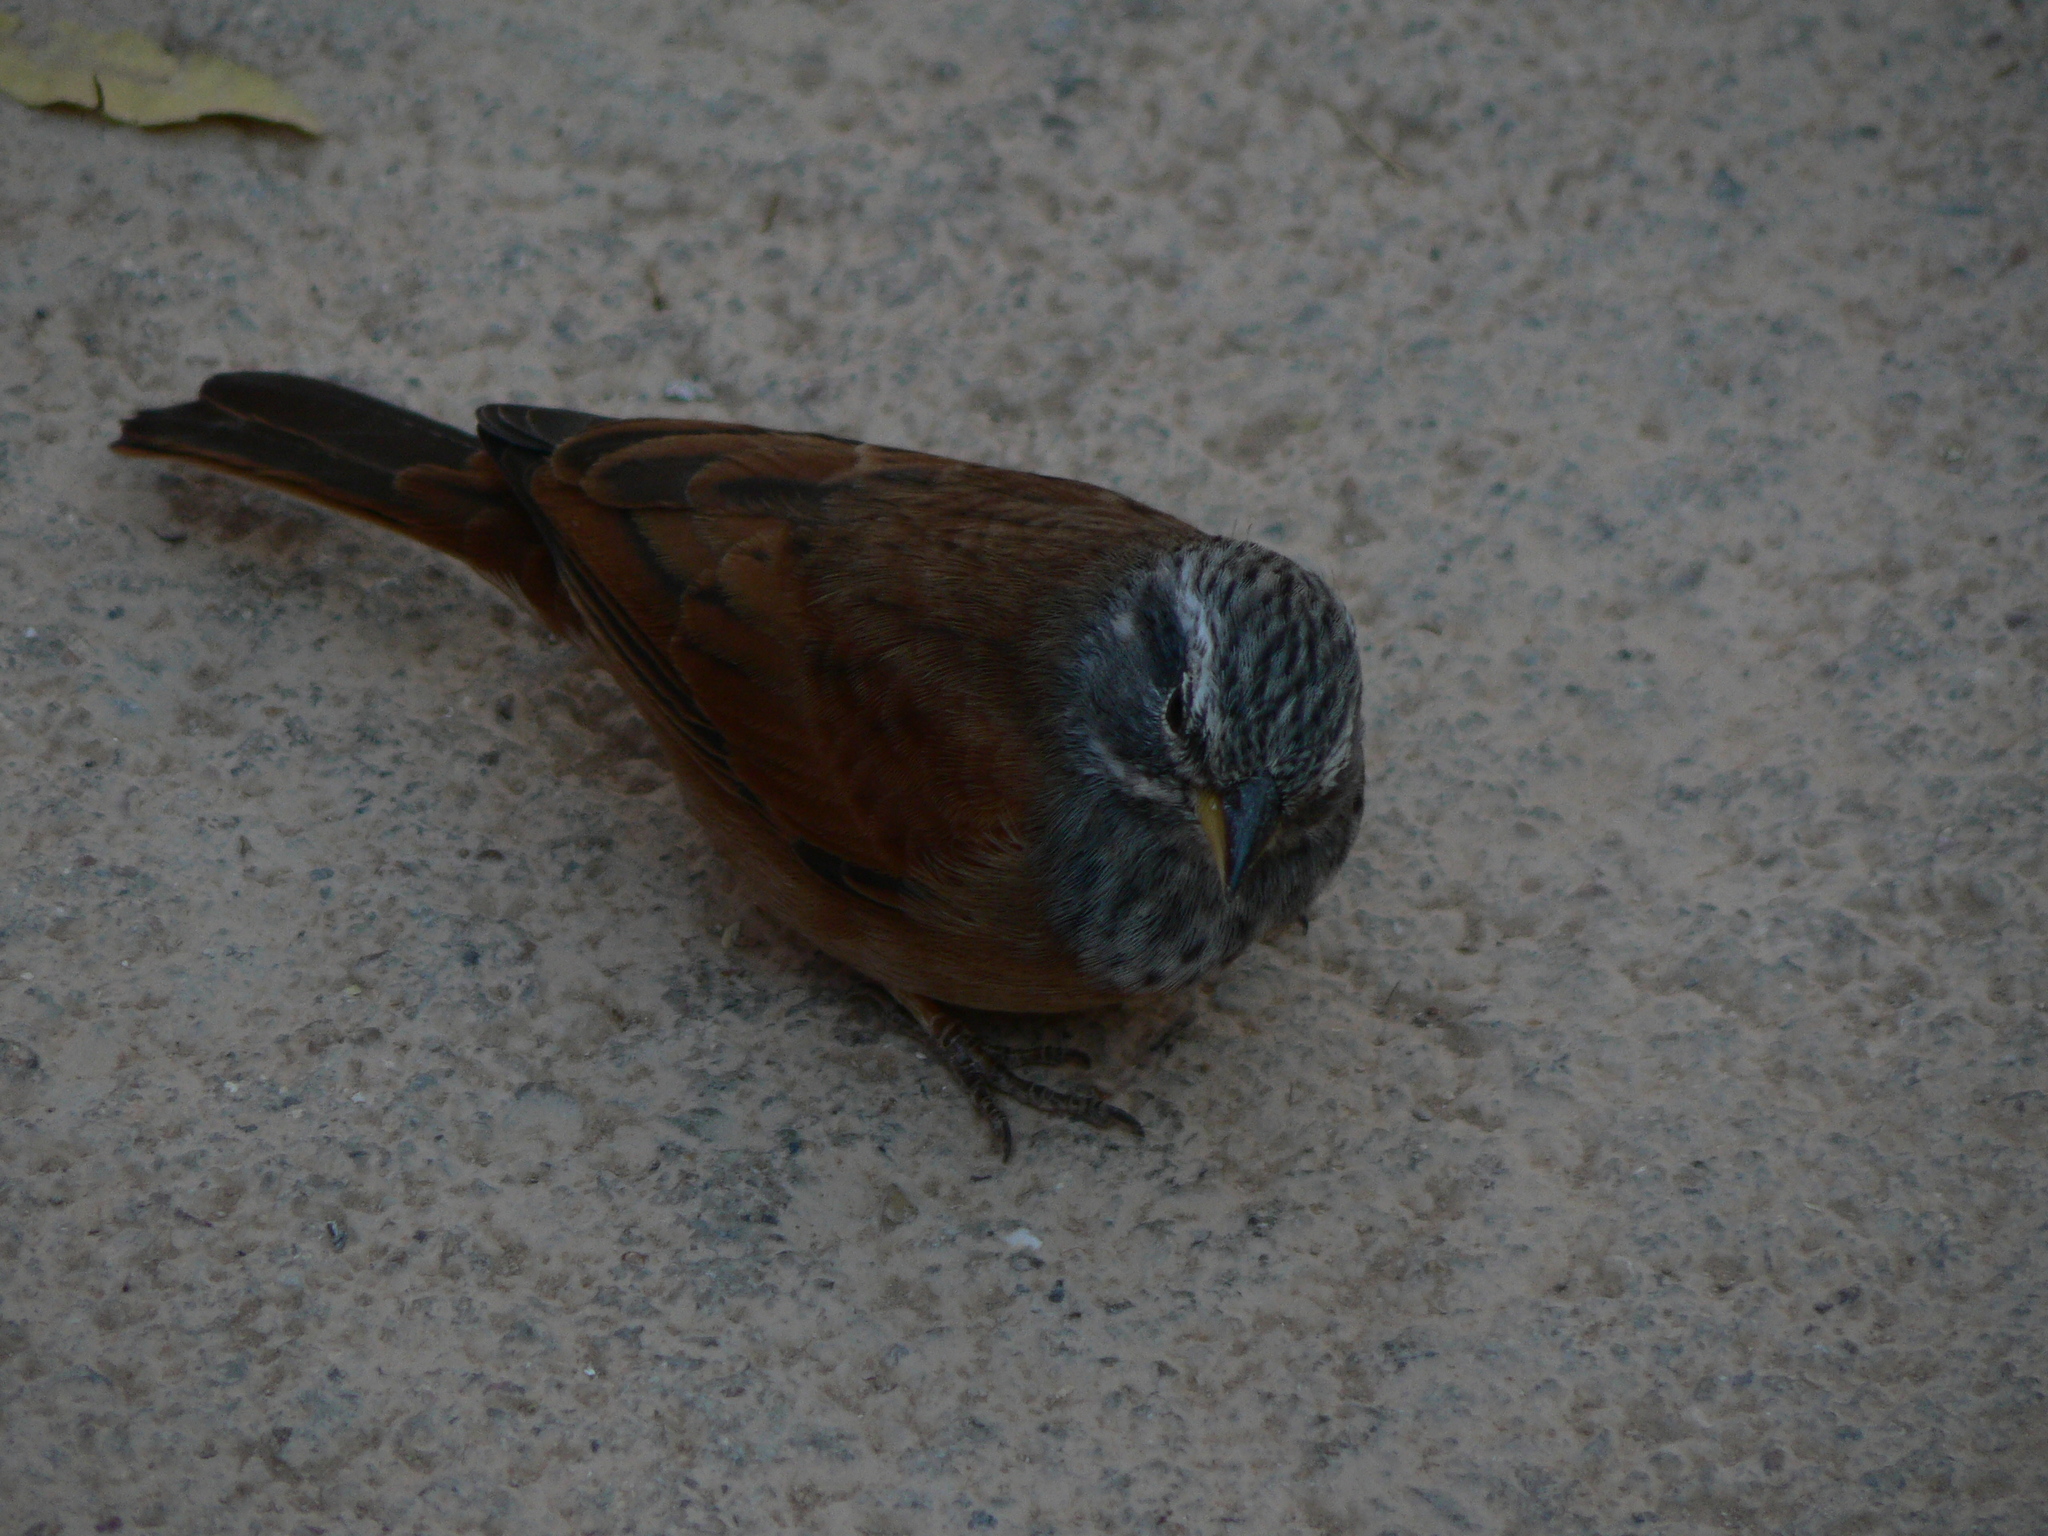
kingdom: Animalia
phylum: Chordata
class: Aves
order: Passeriformes
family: Emberizidae
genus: Emberiza
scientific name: Emberiza sahari
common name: House bunting
